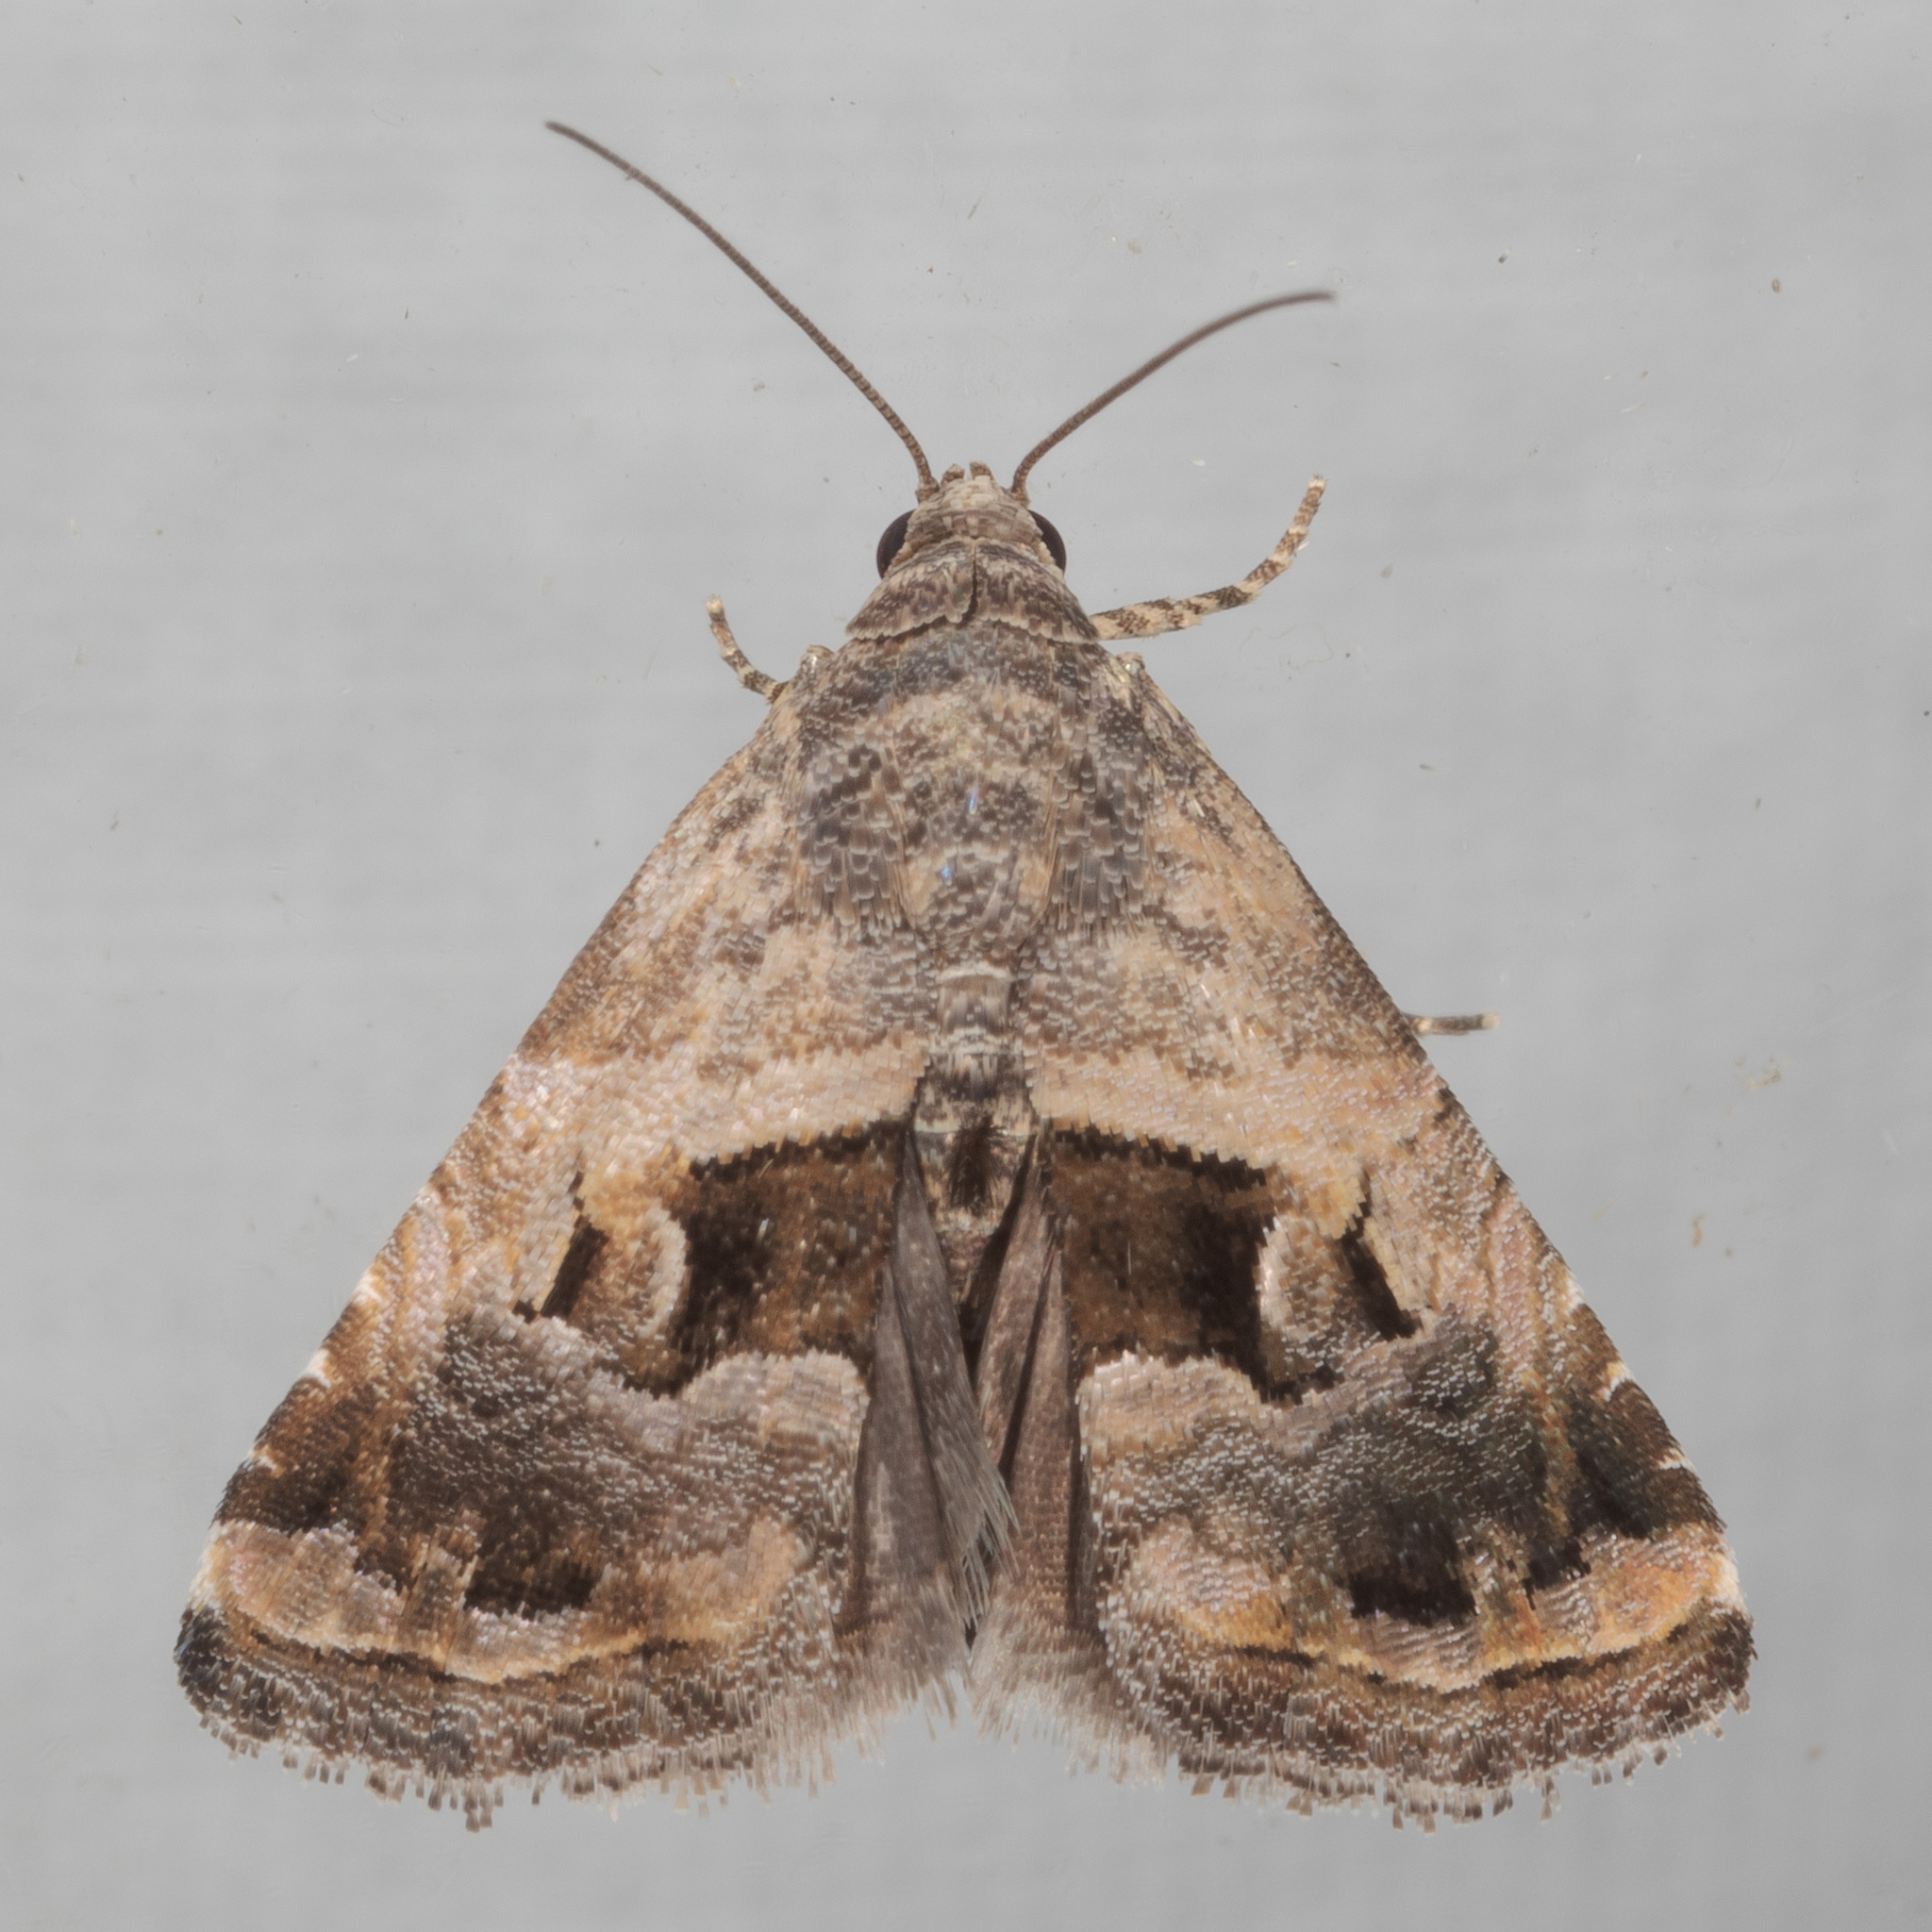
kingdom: Animalia
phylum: Arthropoda
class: Insecta
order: Lepidoptera
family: Noctuidae
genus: Tripudia
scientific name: Tripudia quadrifera
